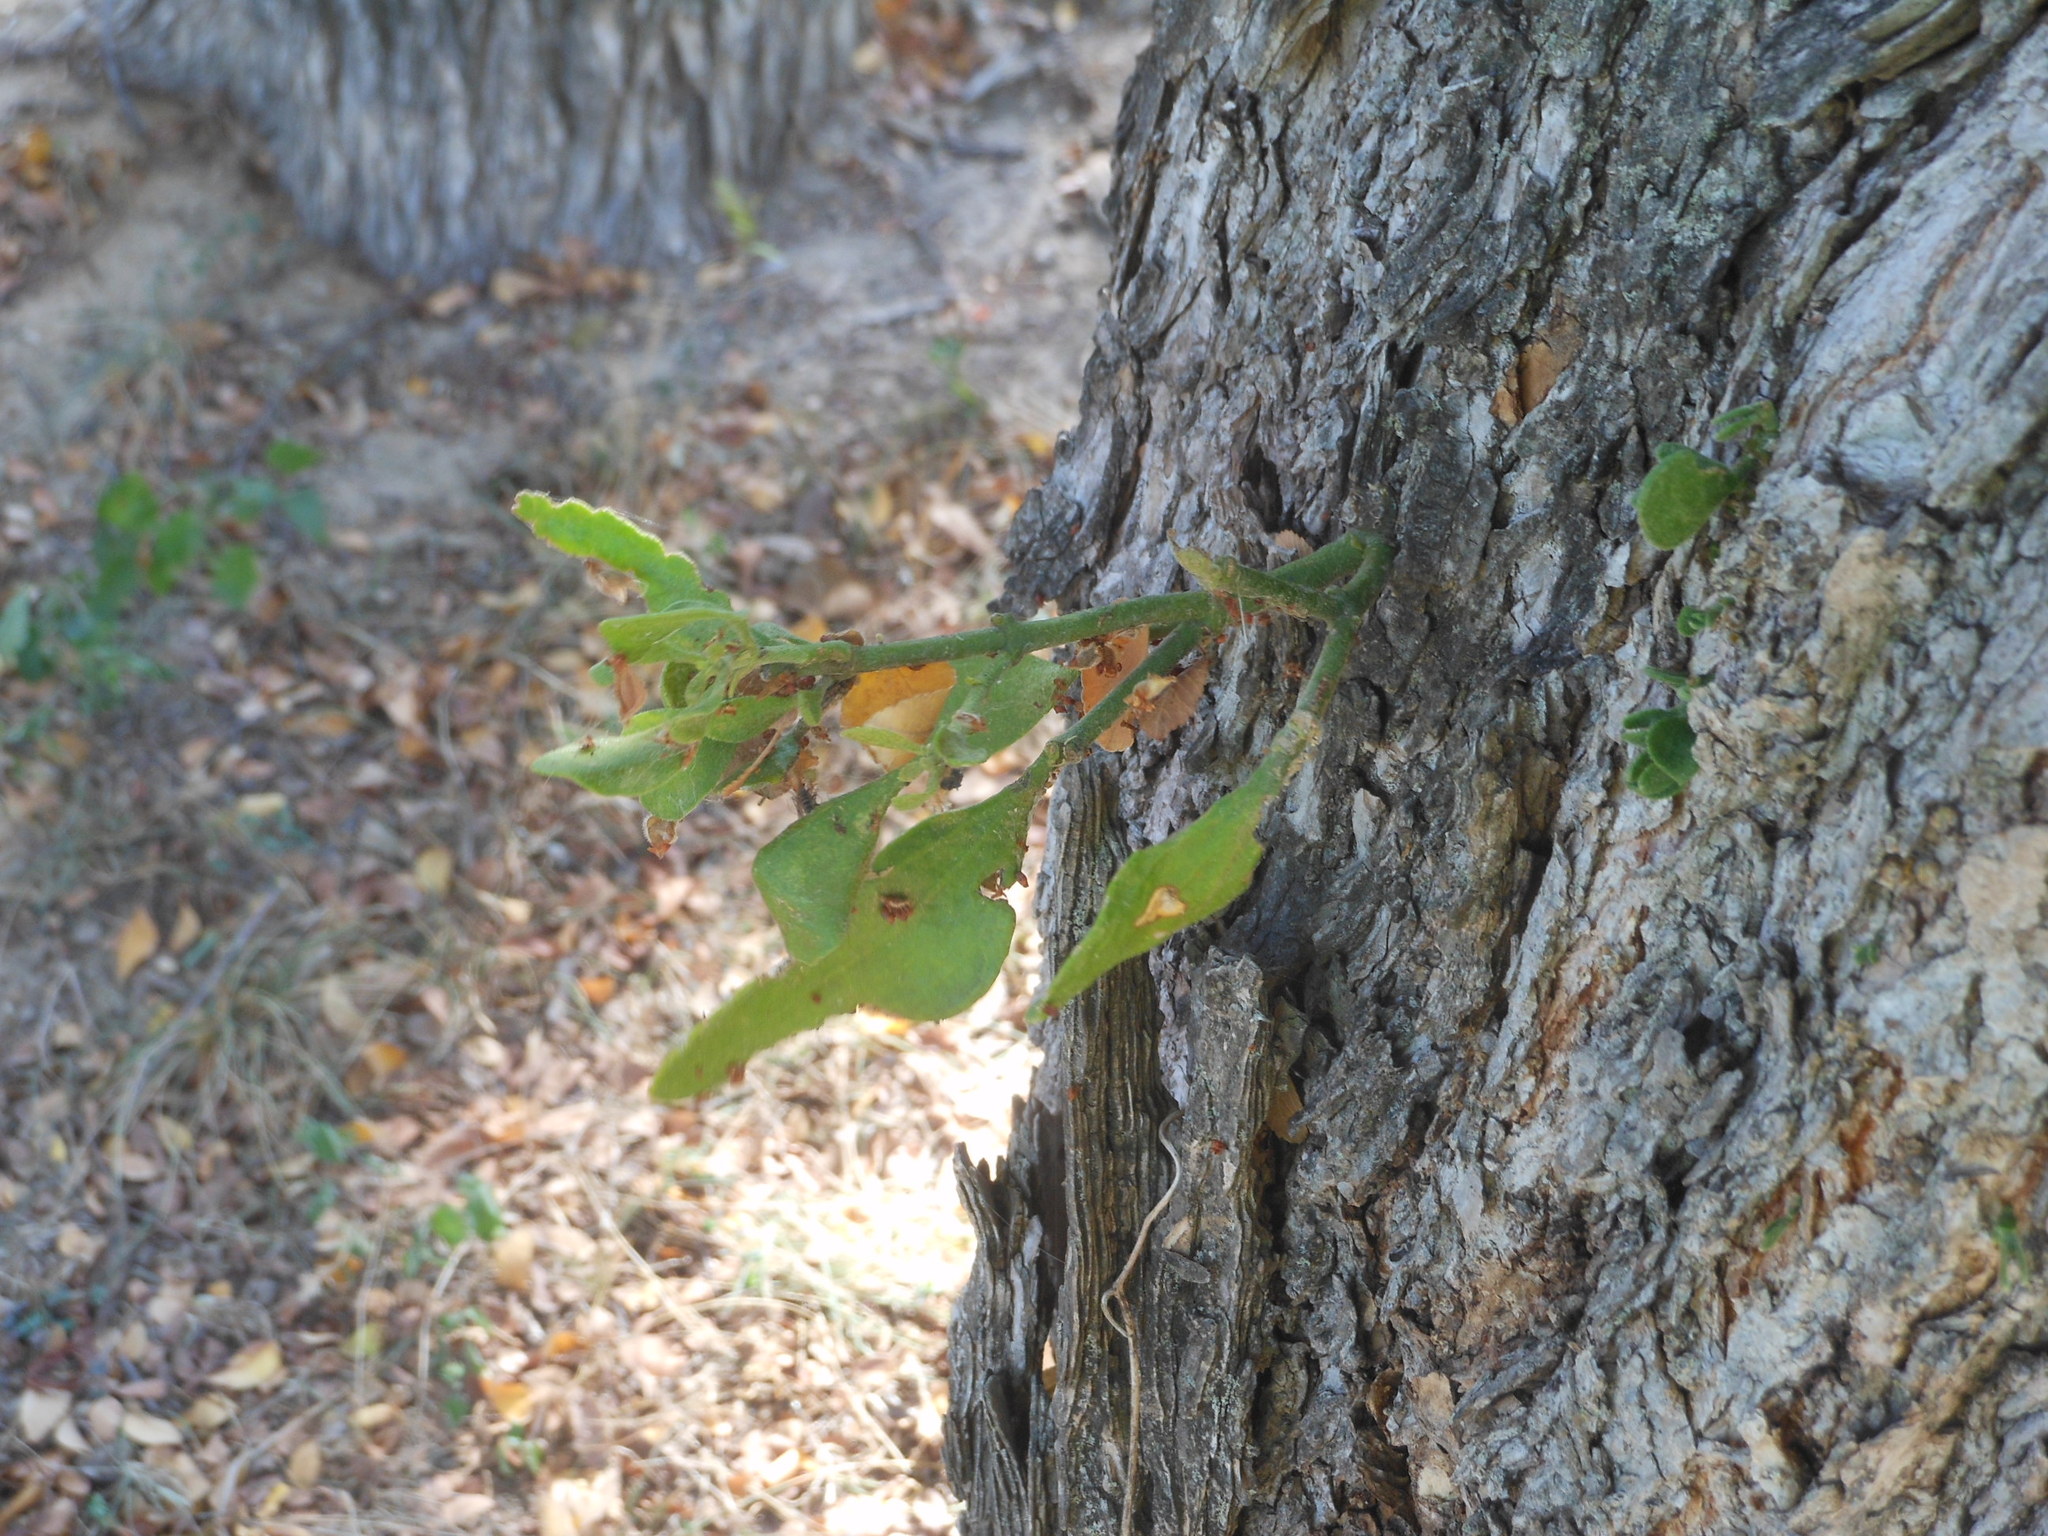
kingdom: Plantae
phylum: Tracheophyta
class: Magnoliopsida
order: Santalales
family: Viscaceae
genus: Phoradendron
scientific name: Phoradendron leucarpum
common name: Pacific mistletoe
